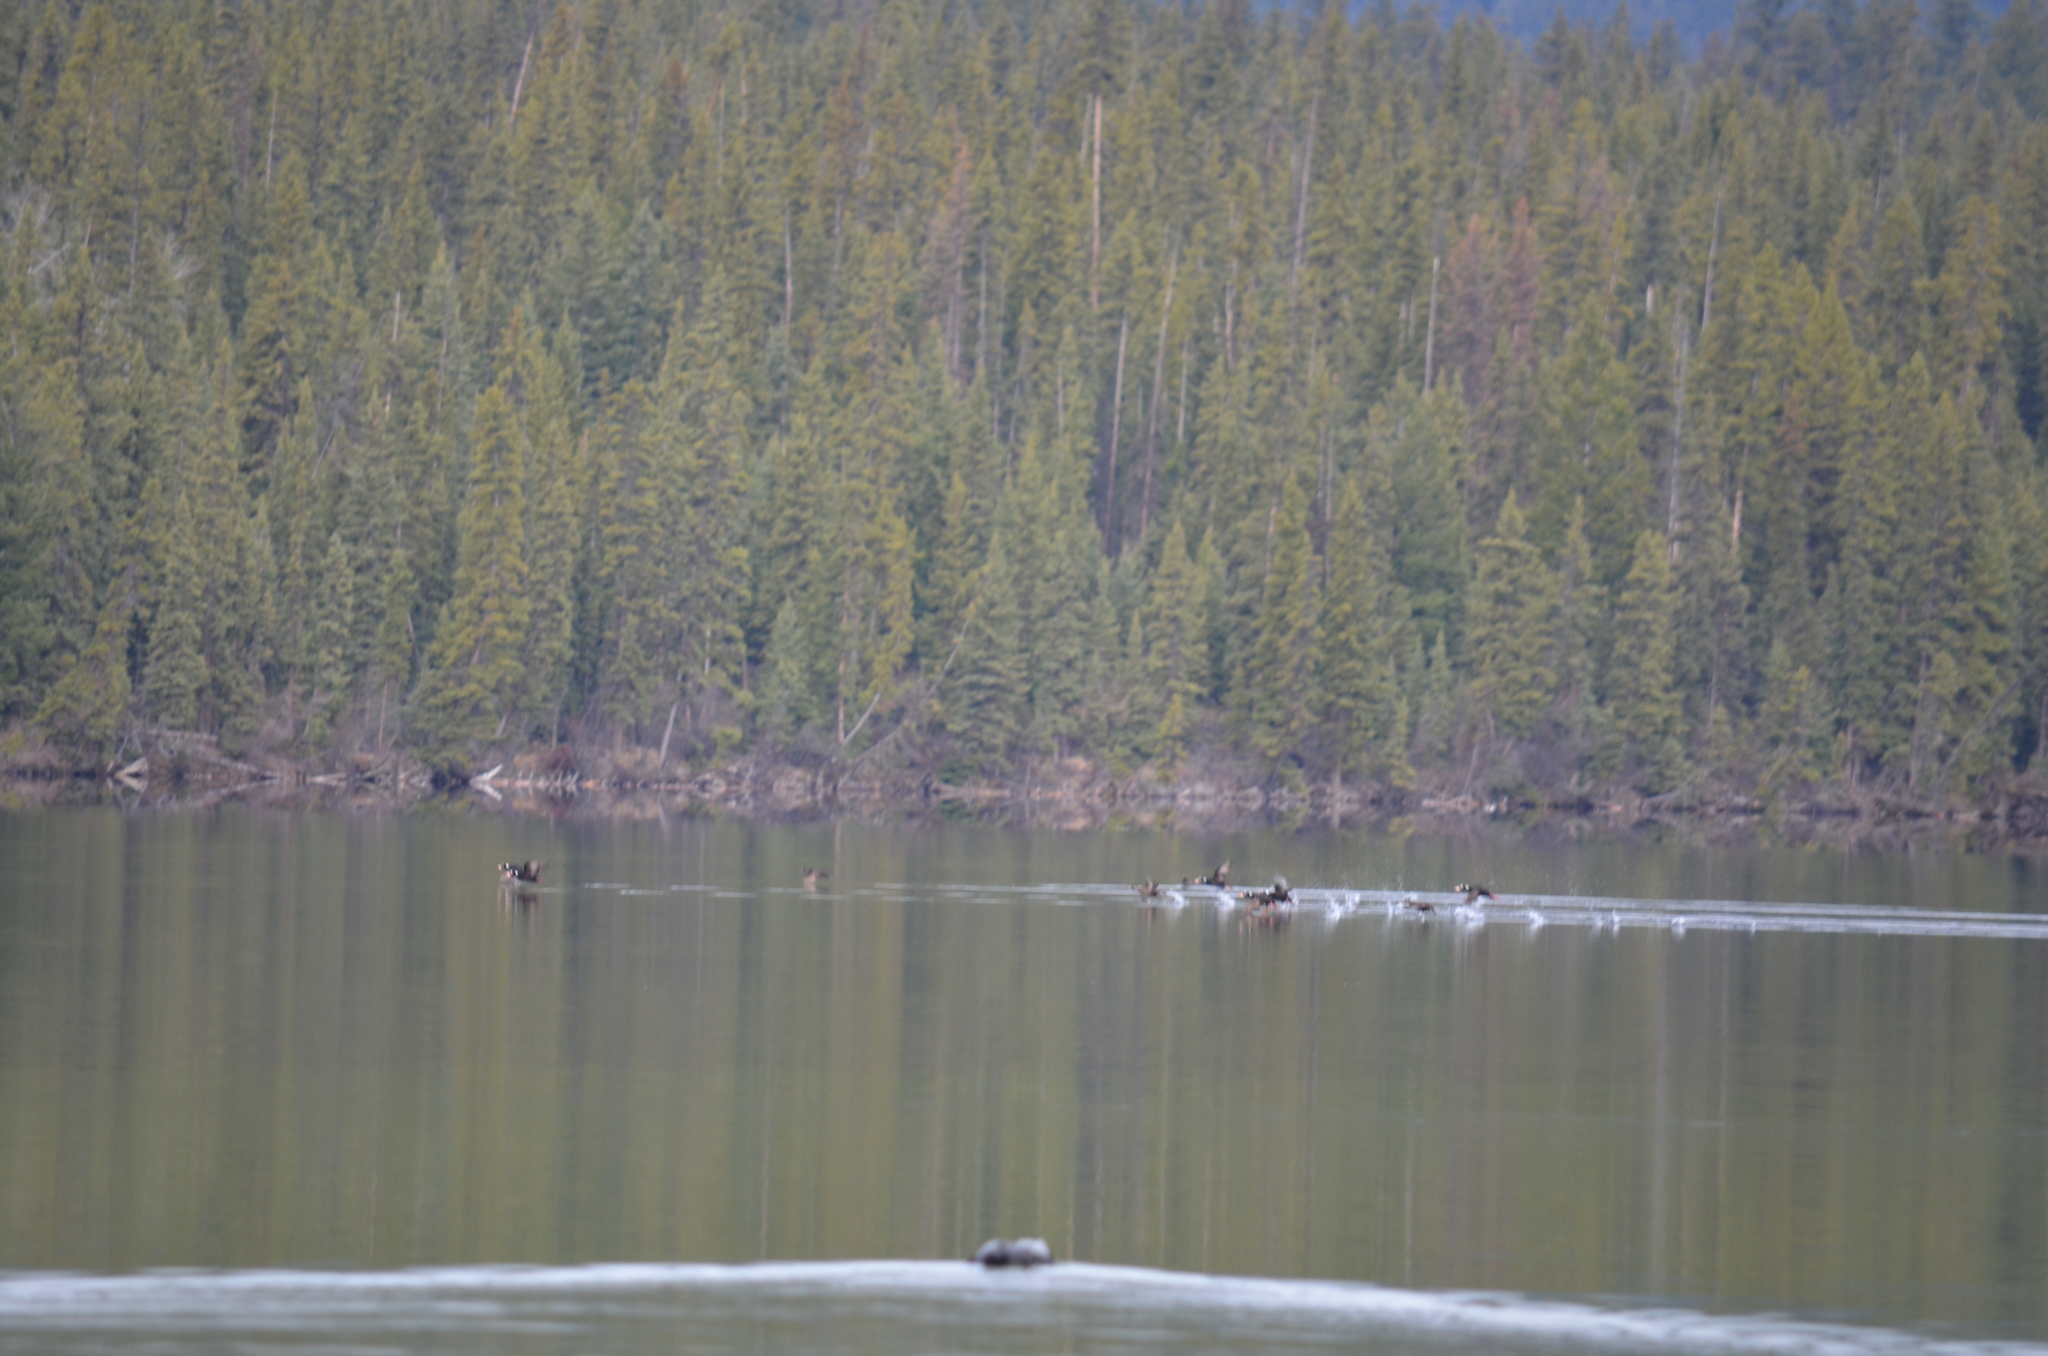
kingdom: Animalia
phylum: Chordata
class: Aves
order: Anseriformes
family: Anatidae
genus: Melanitta
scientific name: Melanitta perspicillata
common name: Surf scoter
